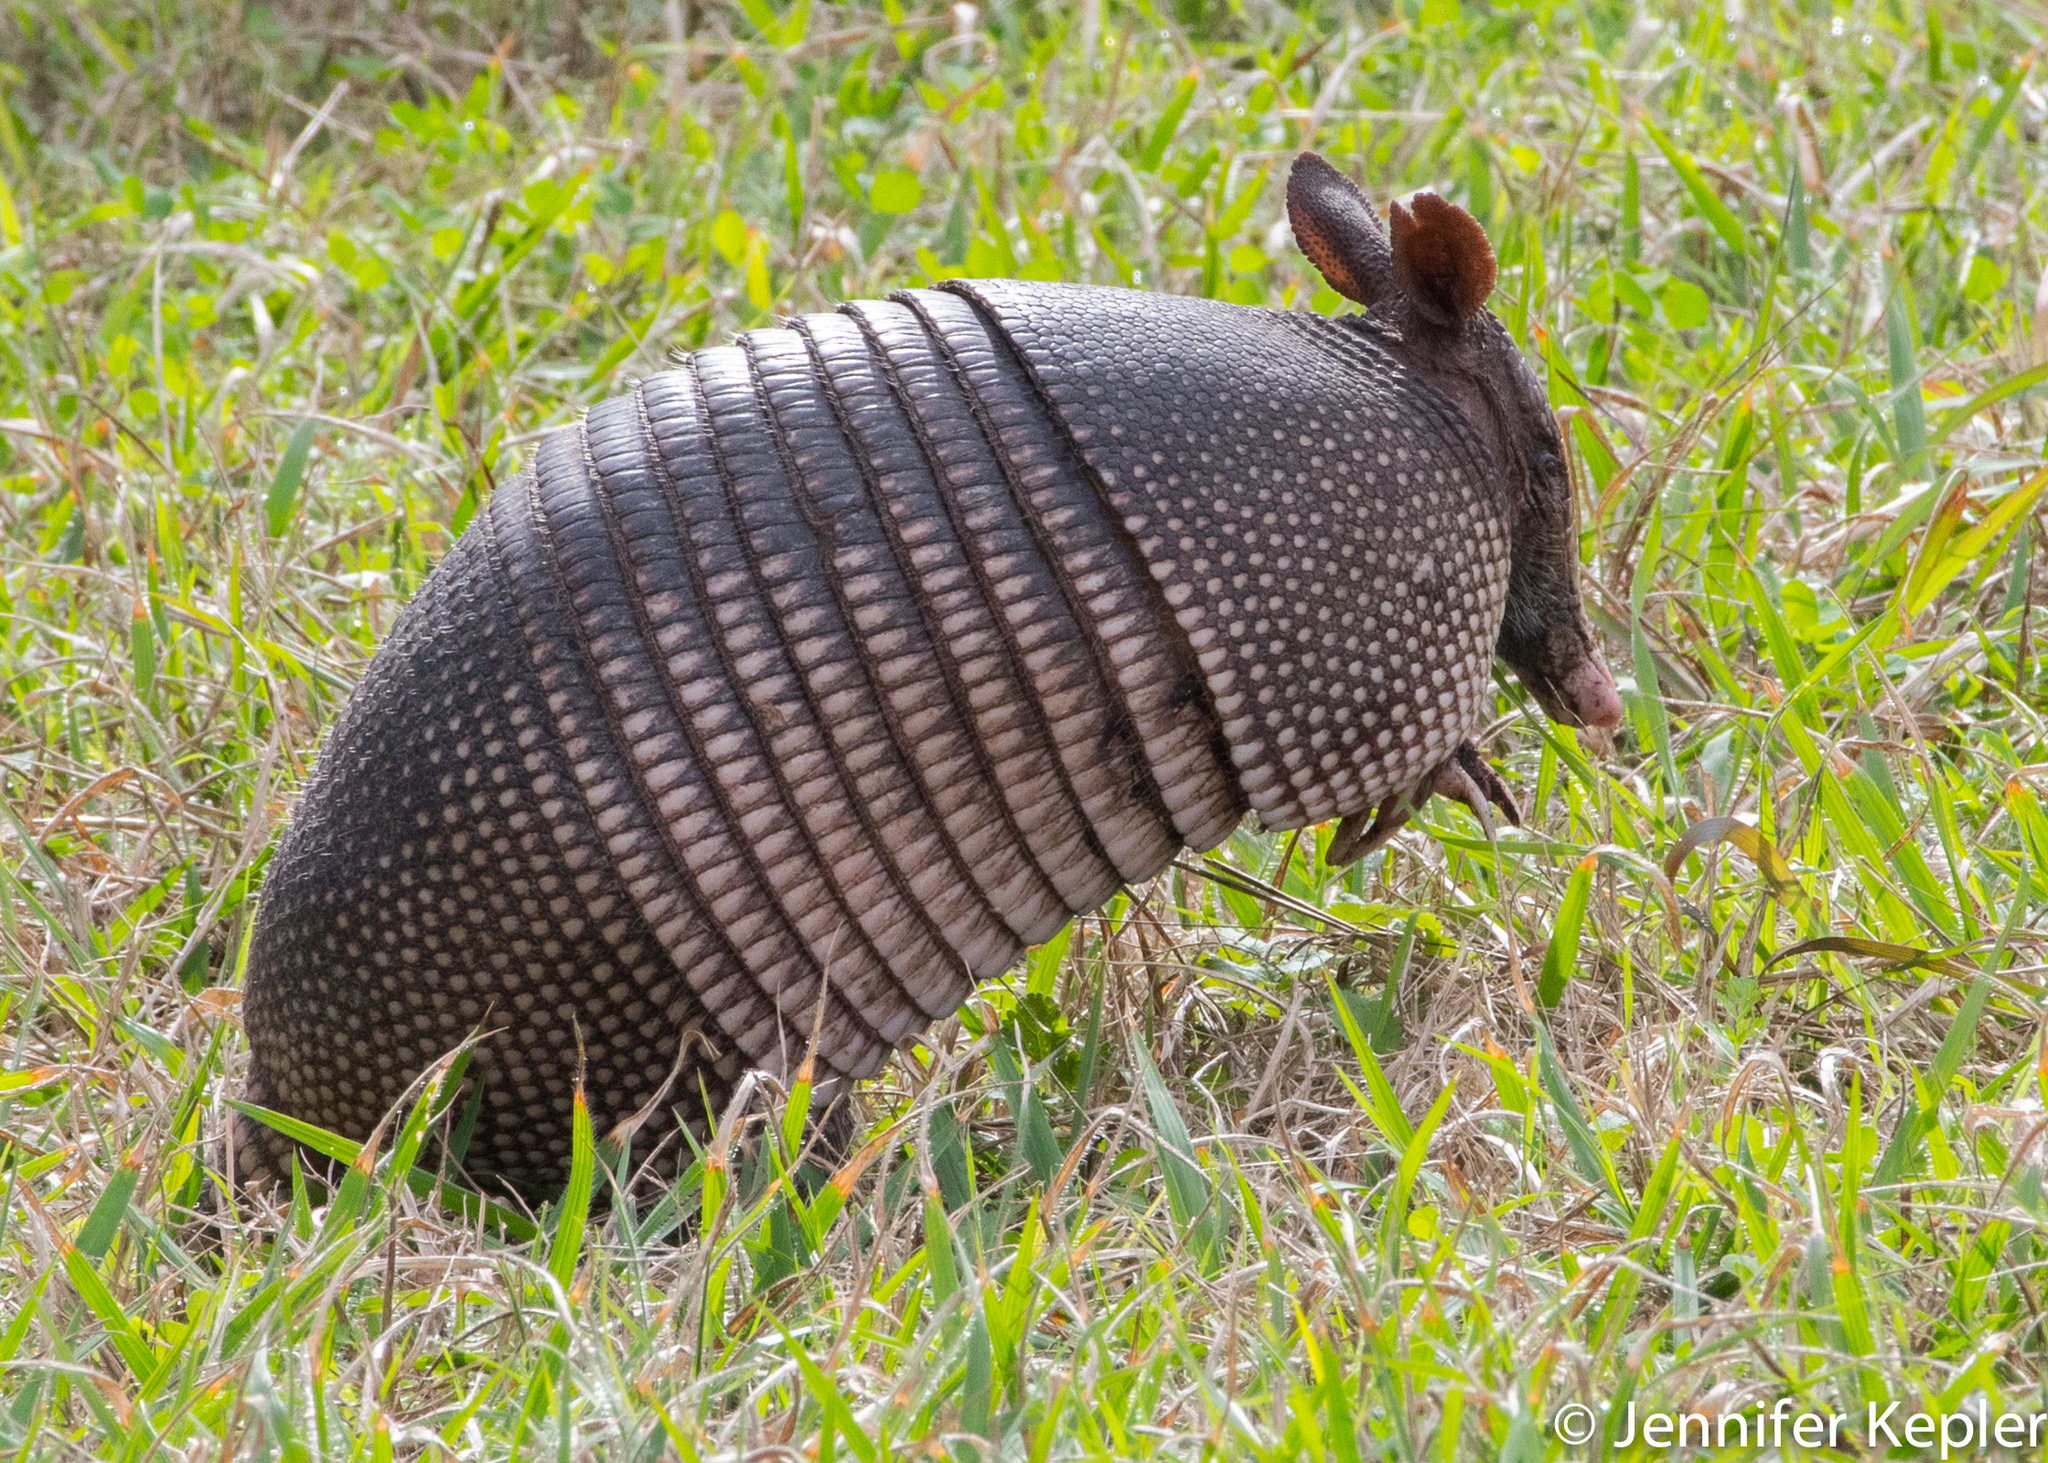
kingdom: Animalia
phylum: Chordata
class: Mammalia
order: Cingulata
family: Dasypodidae
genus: Dasypus
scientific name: Dasypus novemcinctus
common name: Nine-banded armadillo
